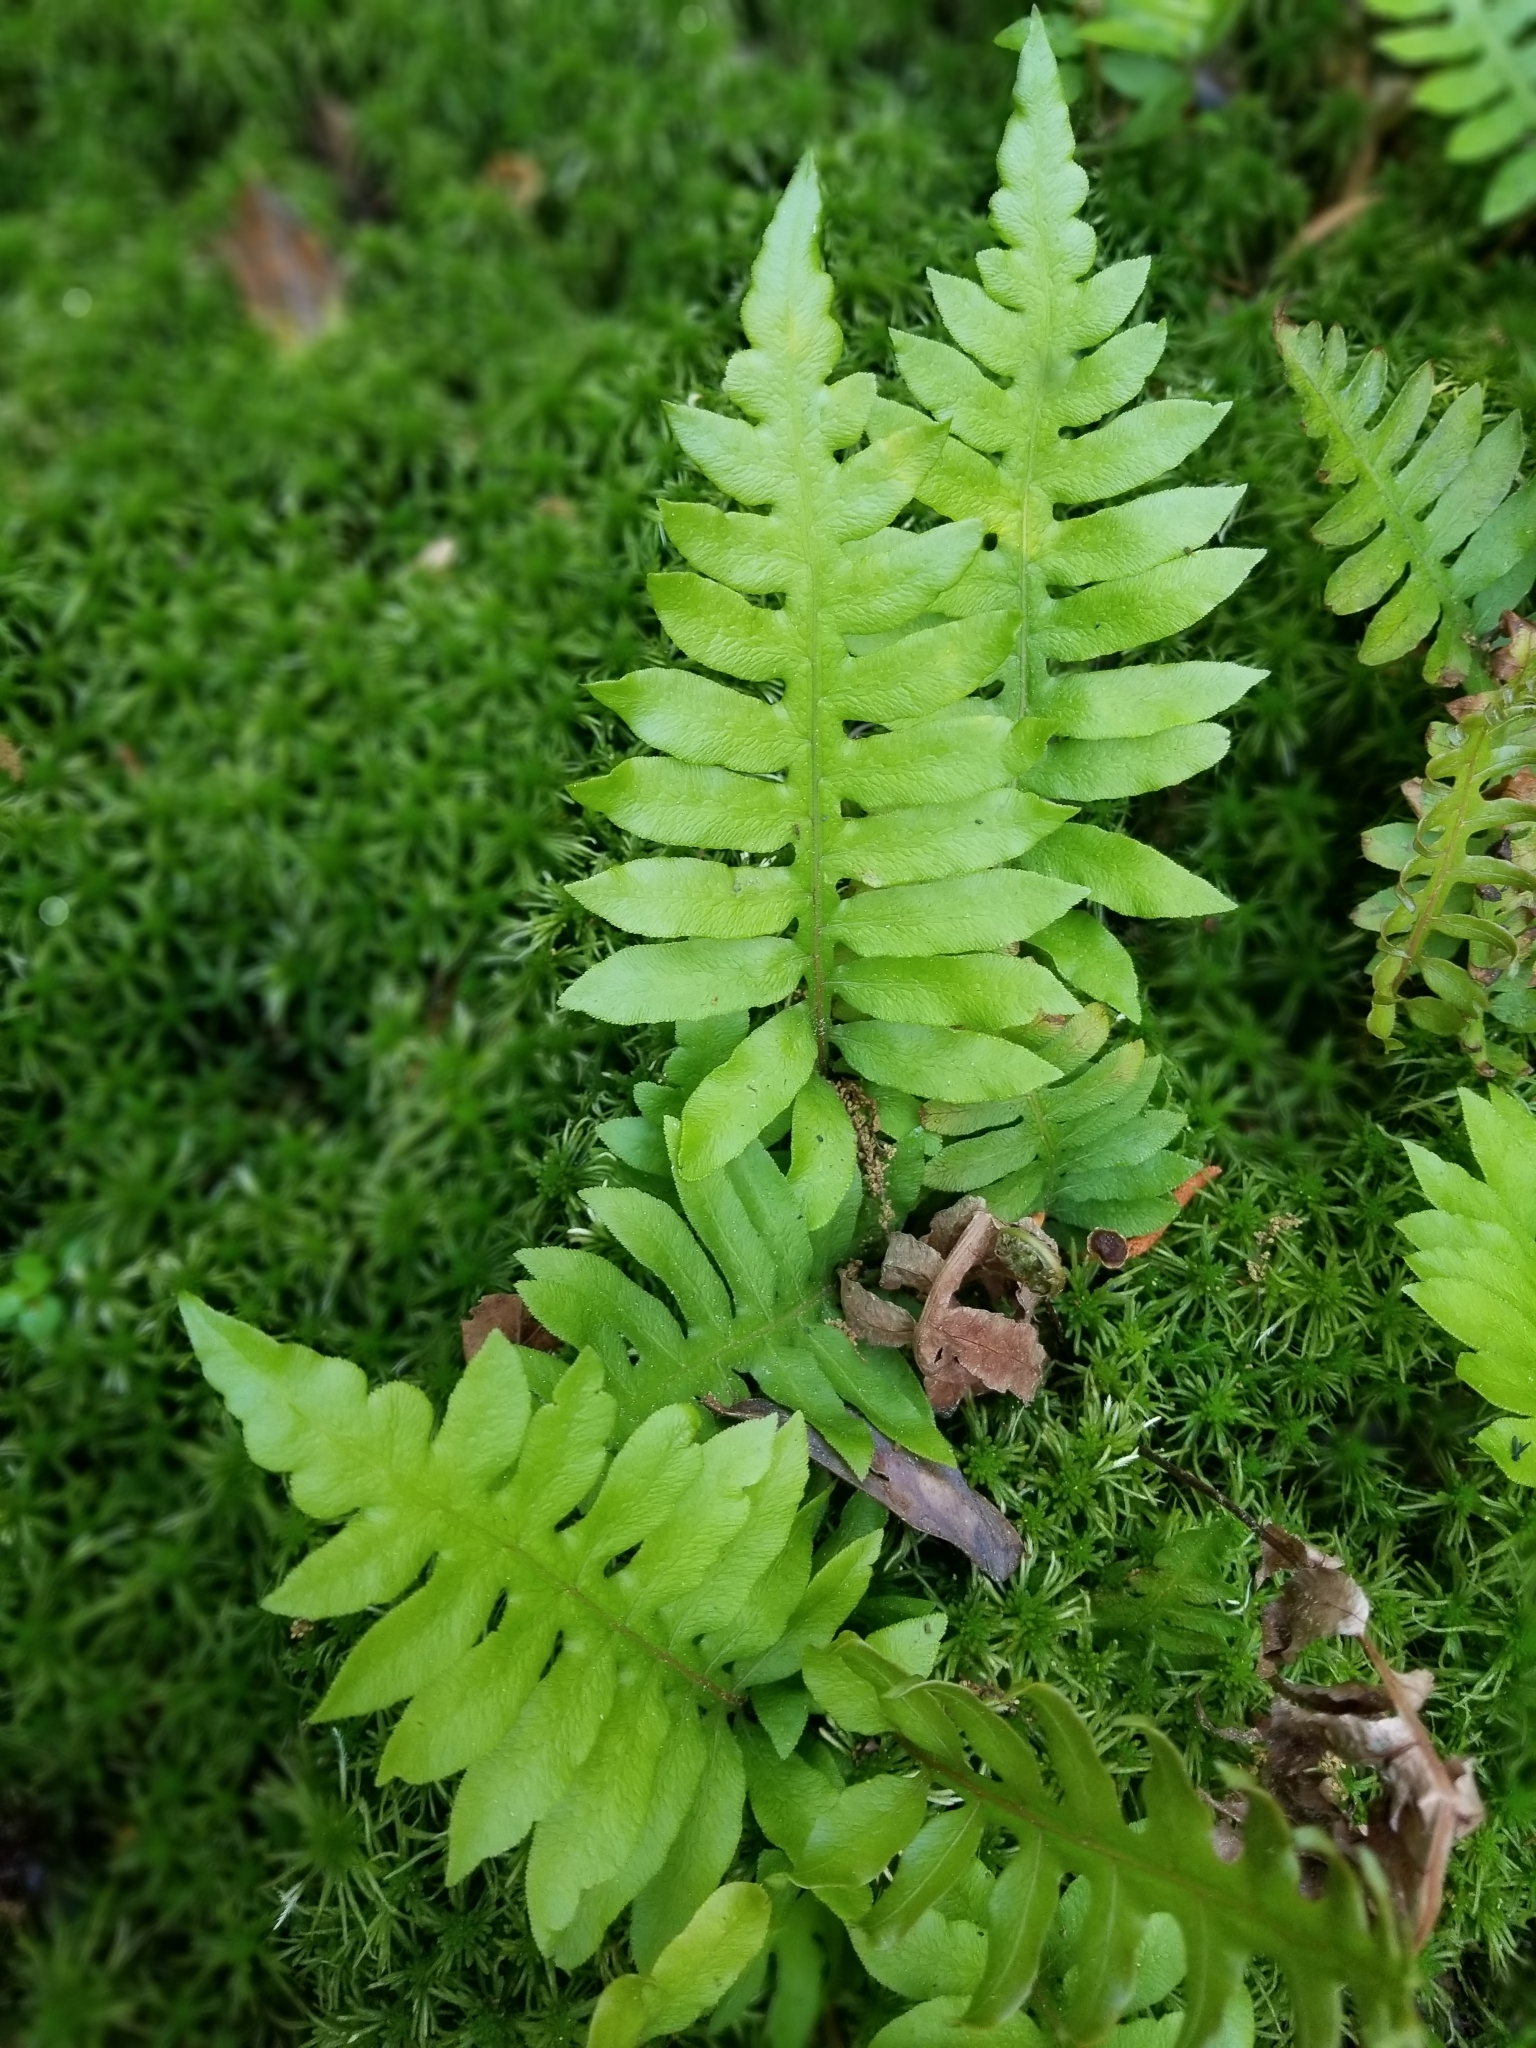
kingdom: Plantae
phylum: Tracheophyta
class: Polypodiopsida
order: Polypodiales
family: Blechnaceae
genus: Lorinseria
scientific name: Lorinseria areolata
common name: Dwarf chain fern
